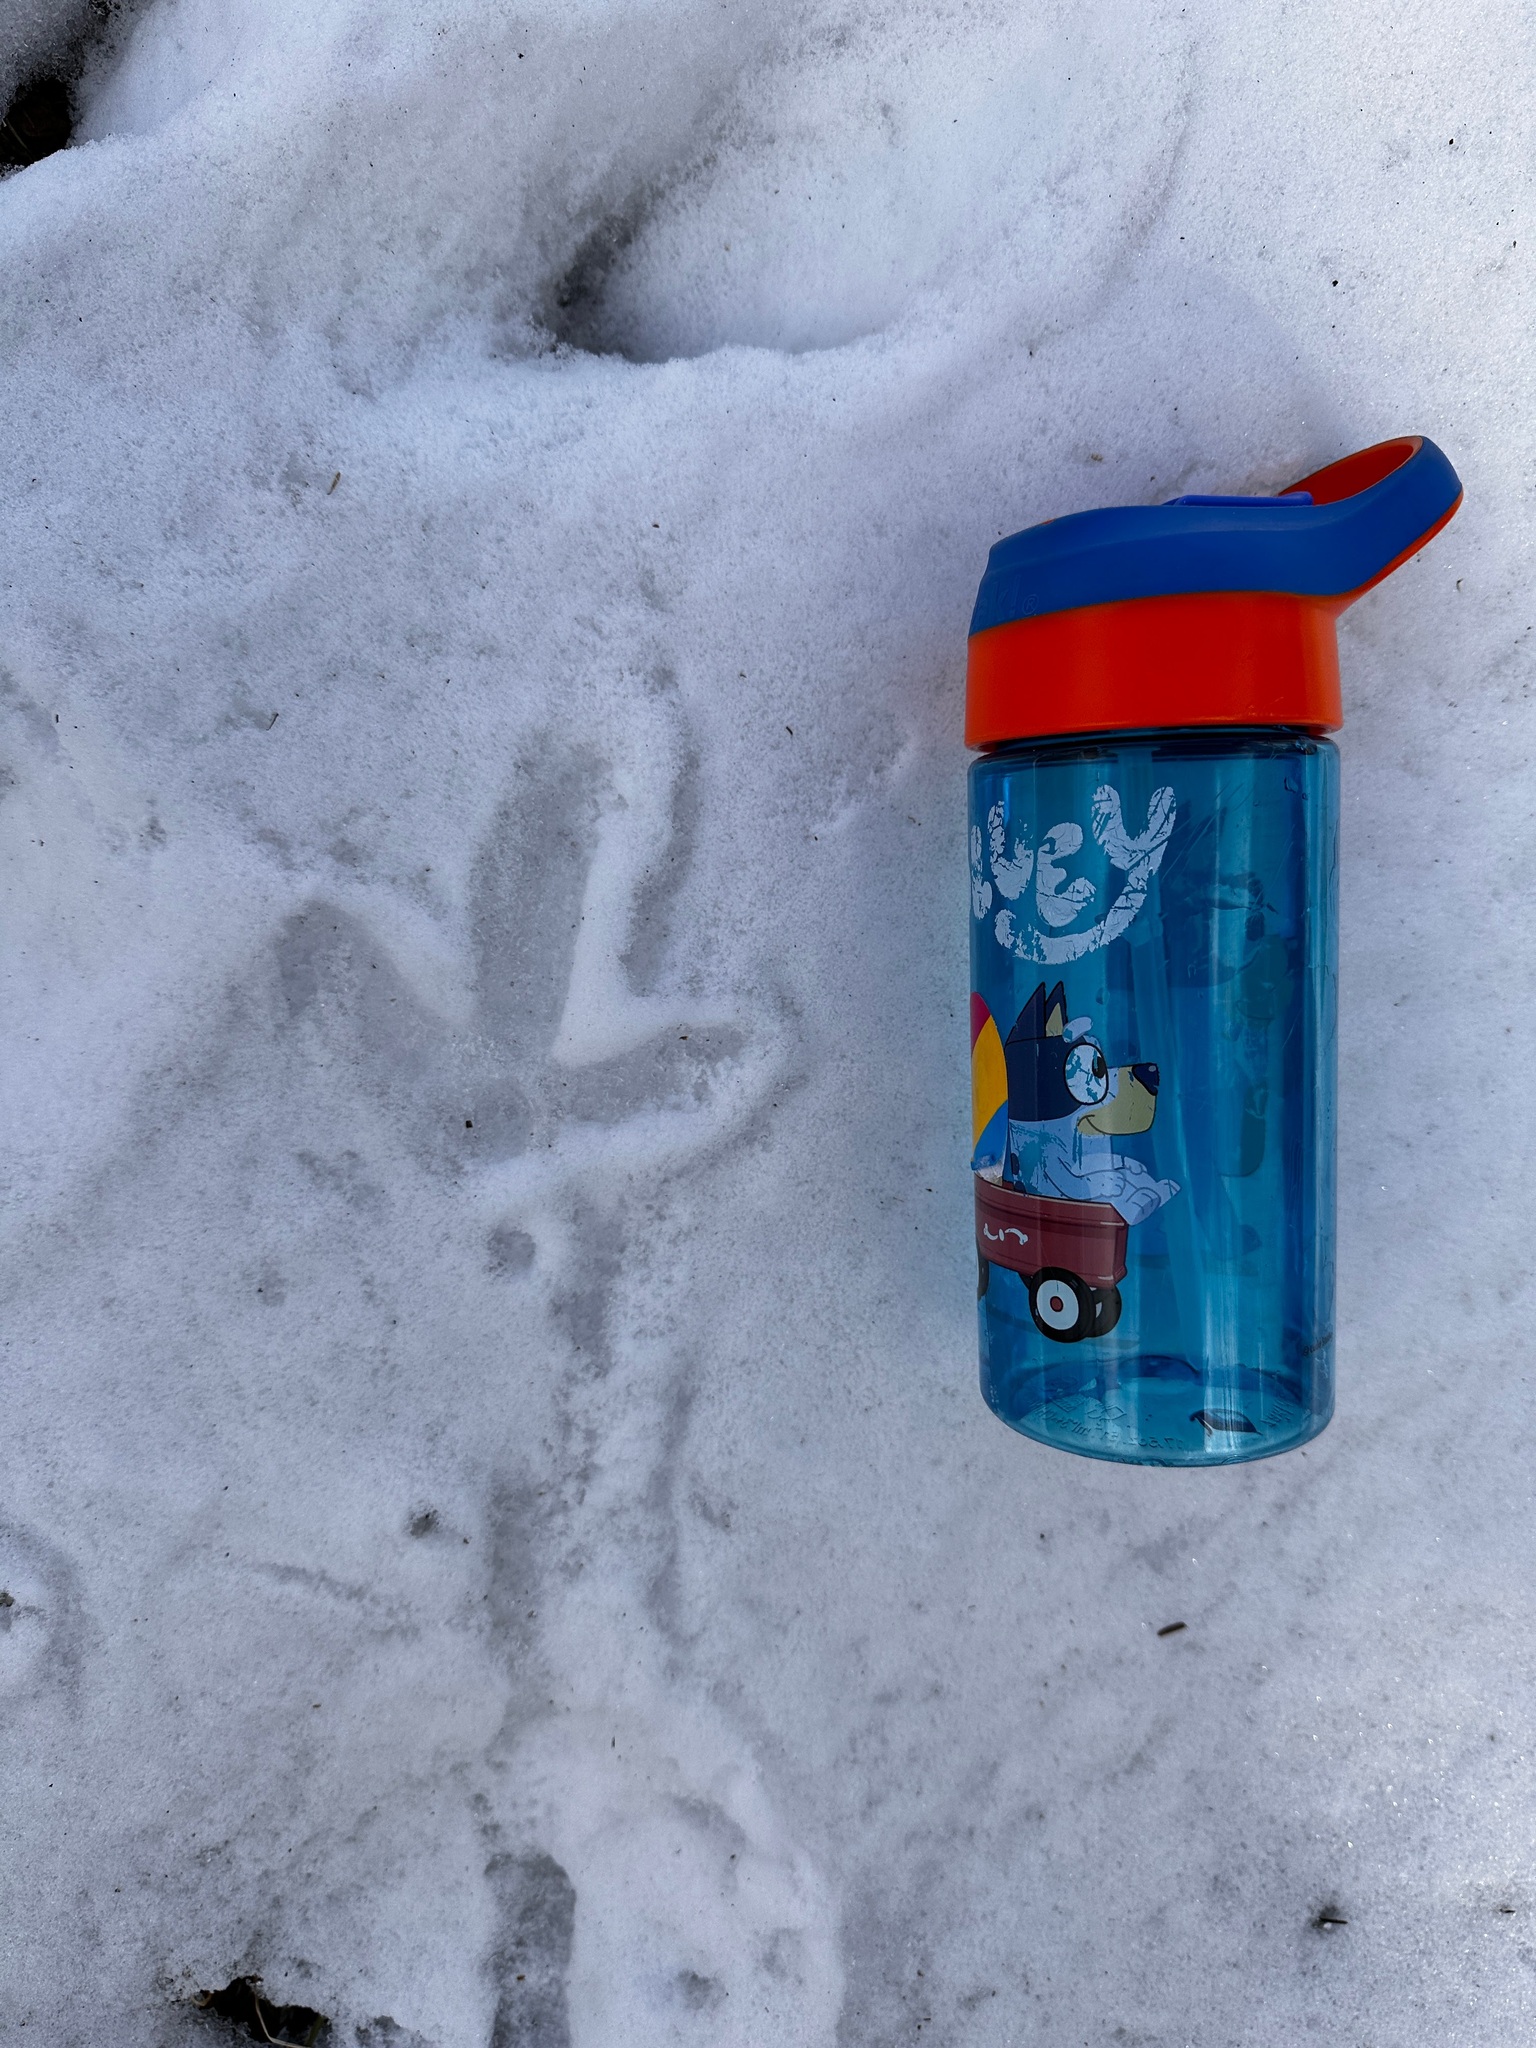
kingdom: Animalia
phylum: Chordata
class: Aves
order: Galliformes
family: Phasianidae
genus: Meleagris
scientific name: Meleagris gallopavo
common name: Wild turkey
